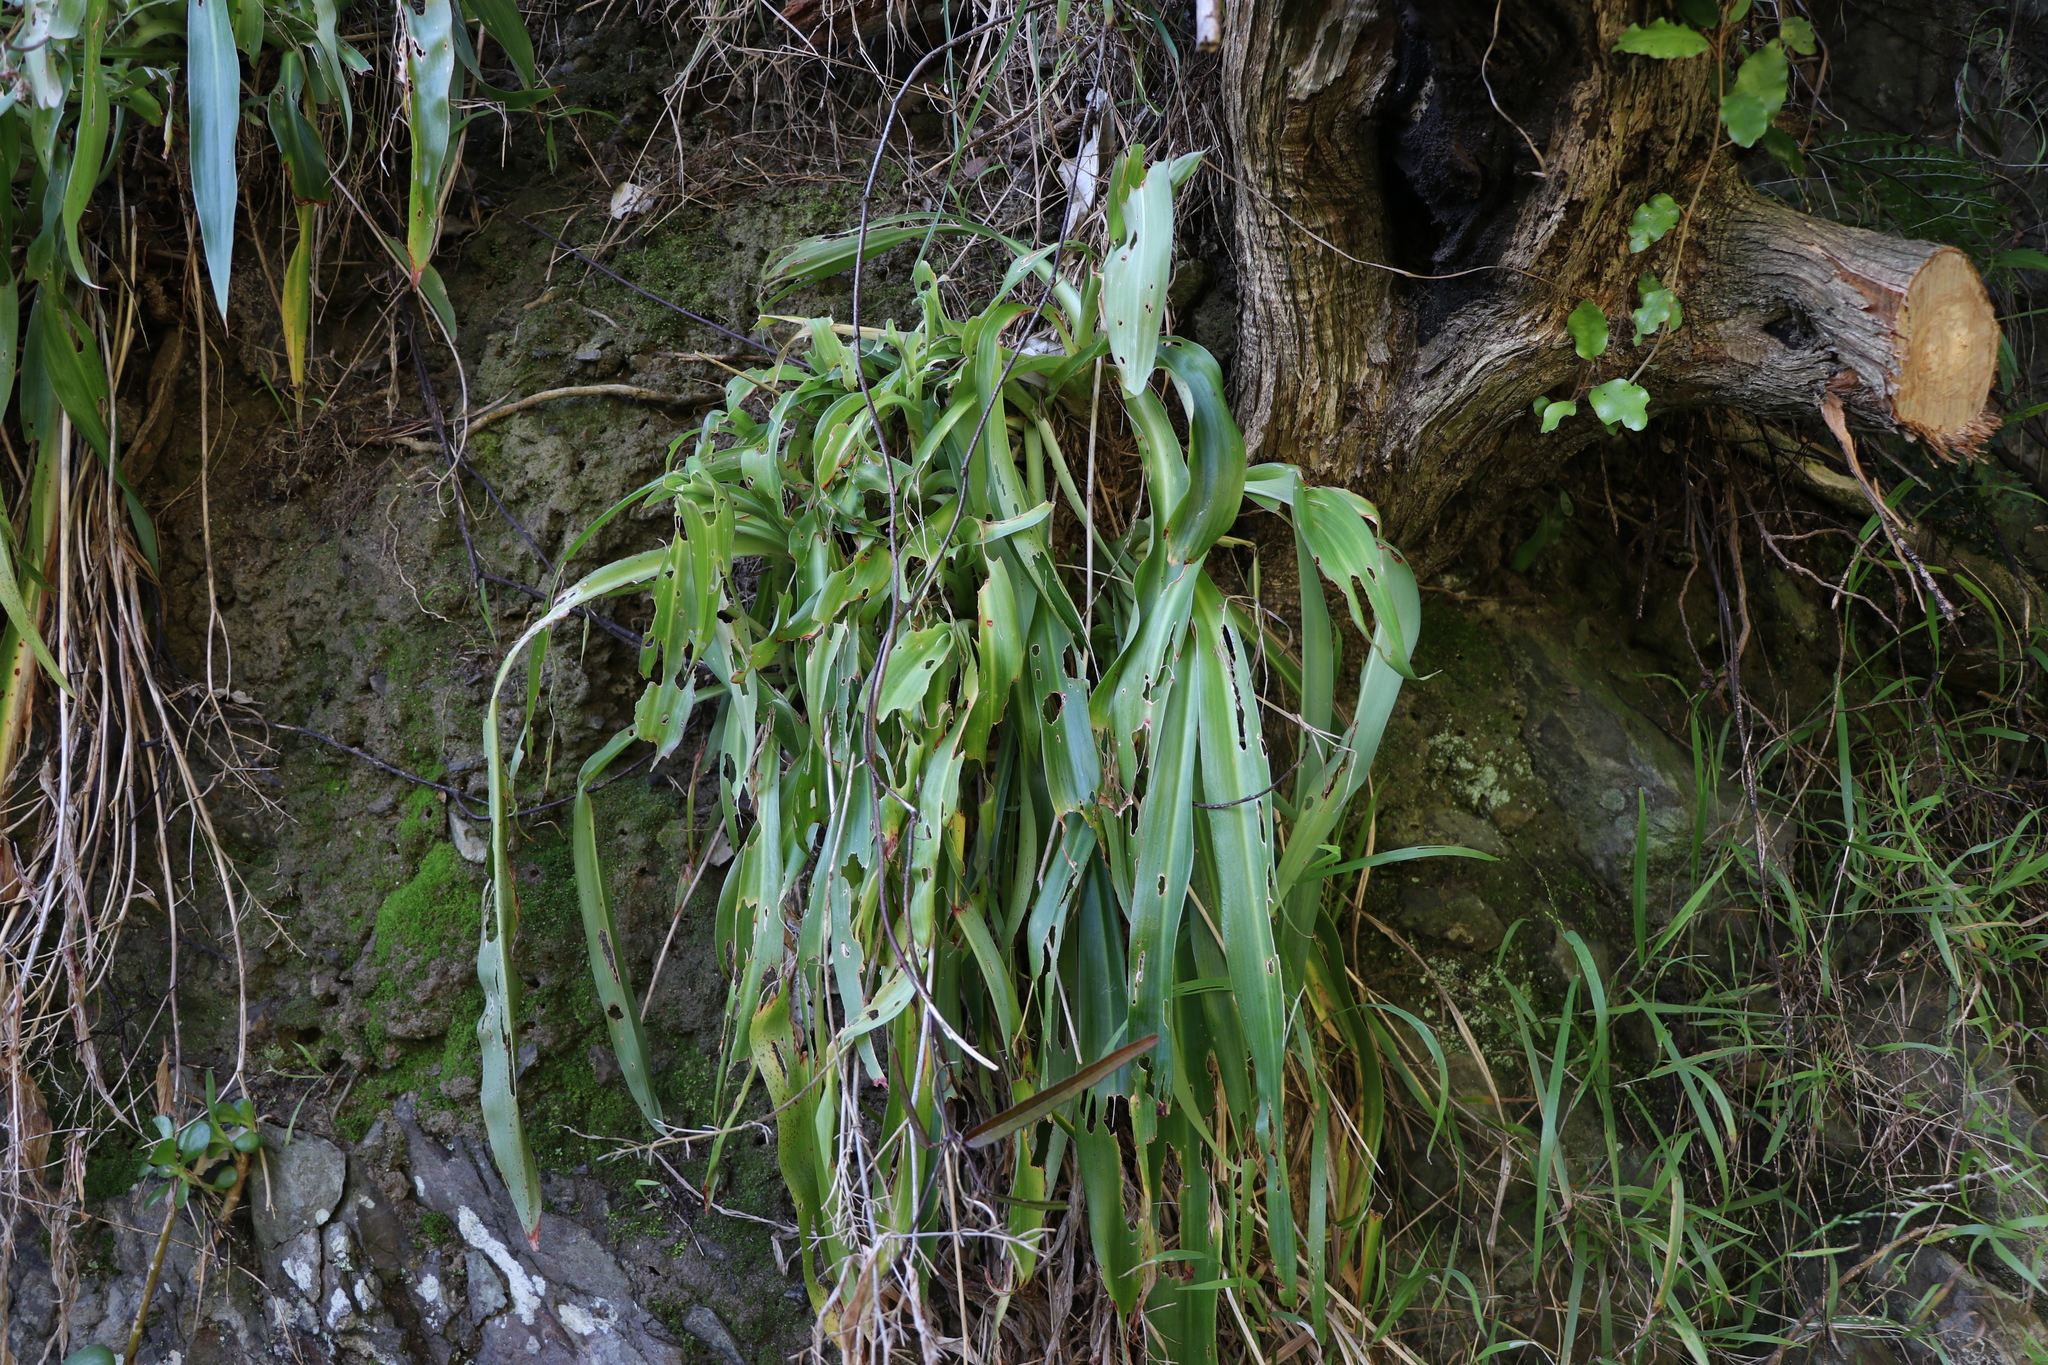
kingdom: Plantae
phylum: Tracheophyta
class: Liliopsida
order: Asparagales
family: Asparagaceae
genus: Arthropodium
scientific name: Arthropodium cirratum
